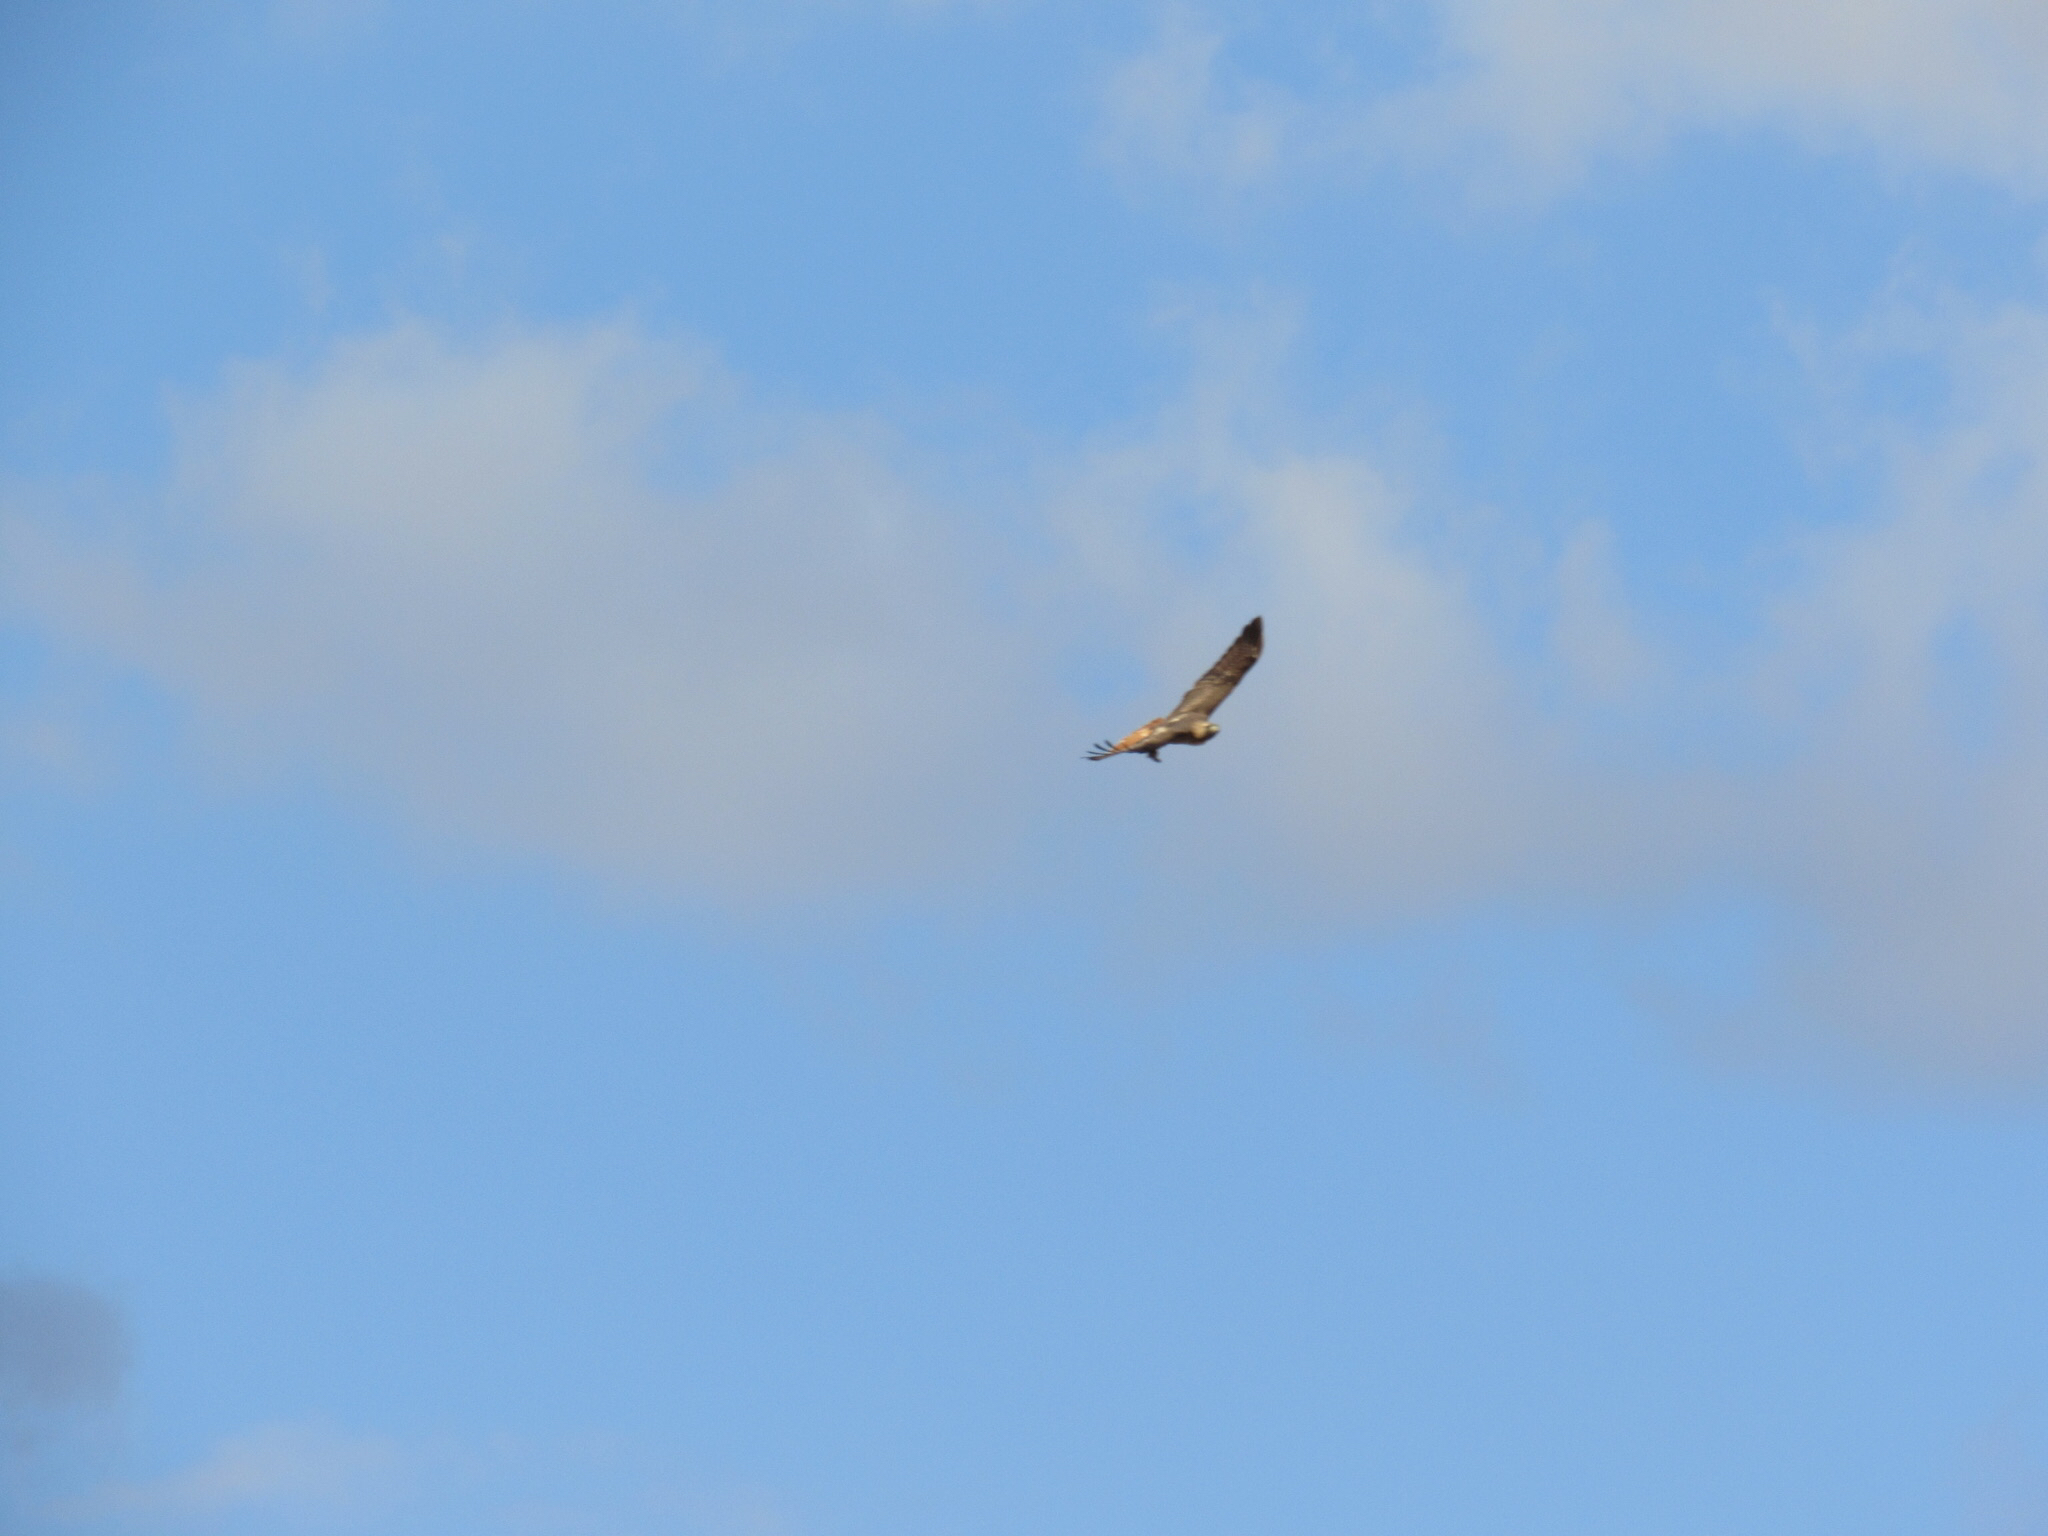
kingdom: Animalia
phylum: Chordata
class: Aves
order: Accipitriformes
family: Accipitridae
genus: Buteo
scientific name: Buteo jamaicensis
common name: Red-tailed hawk
